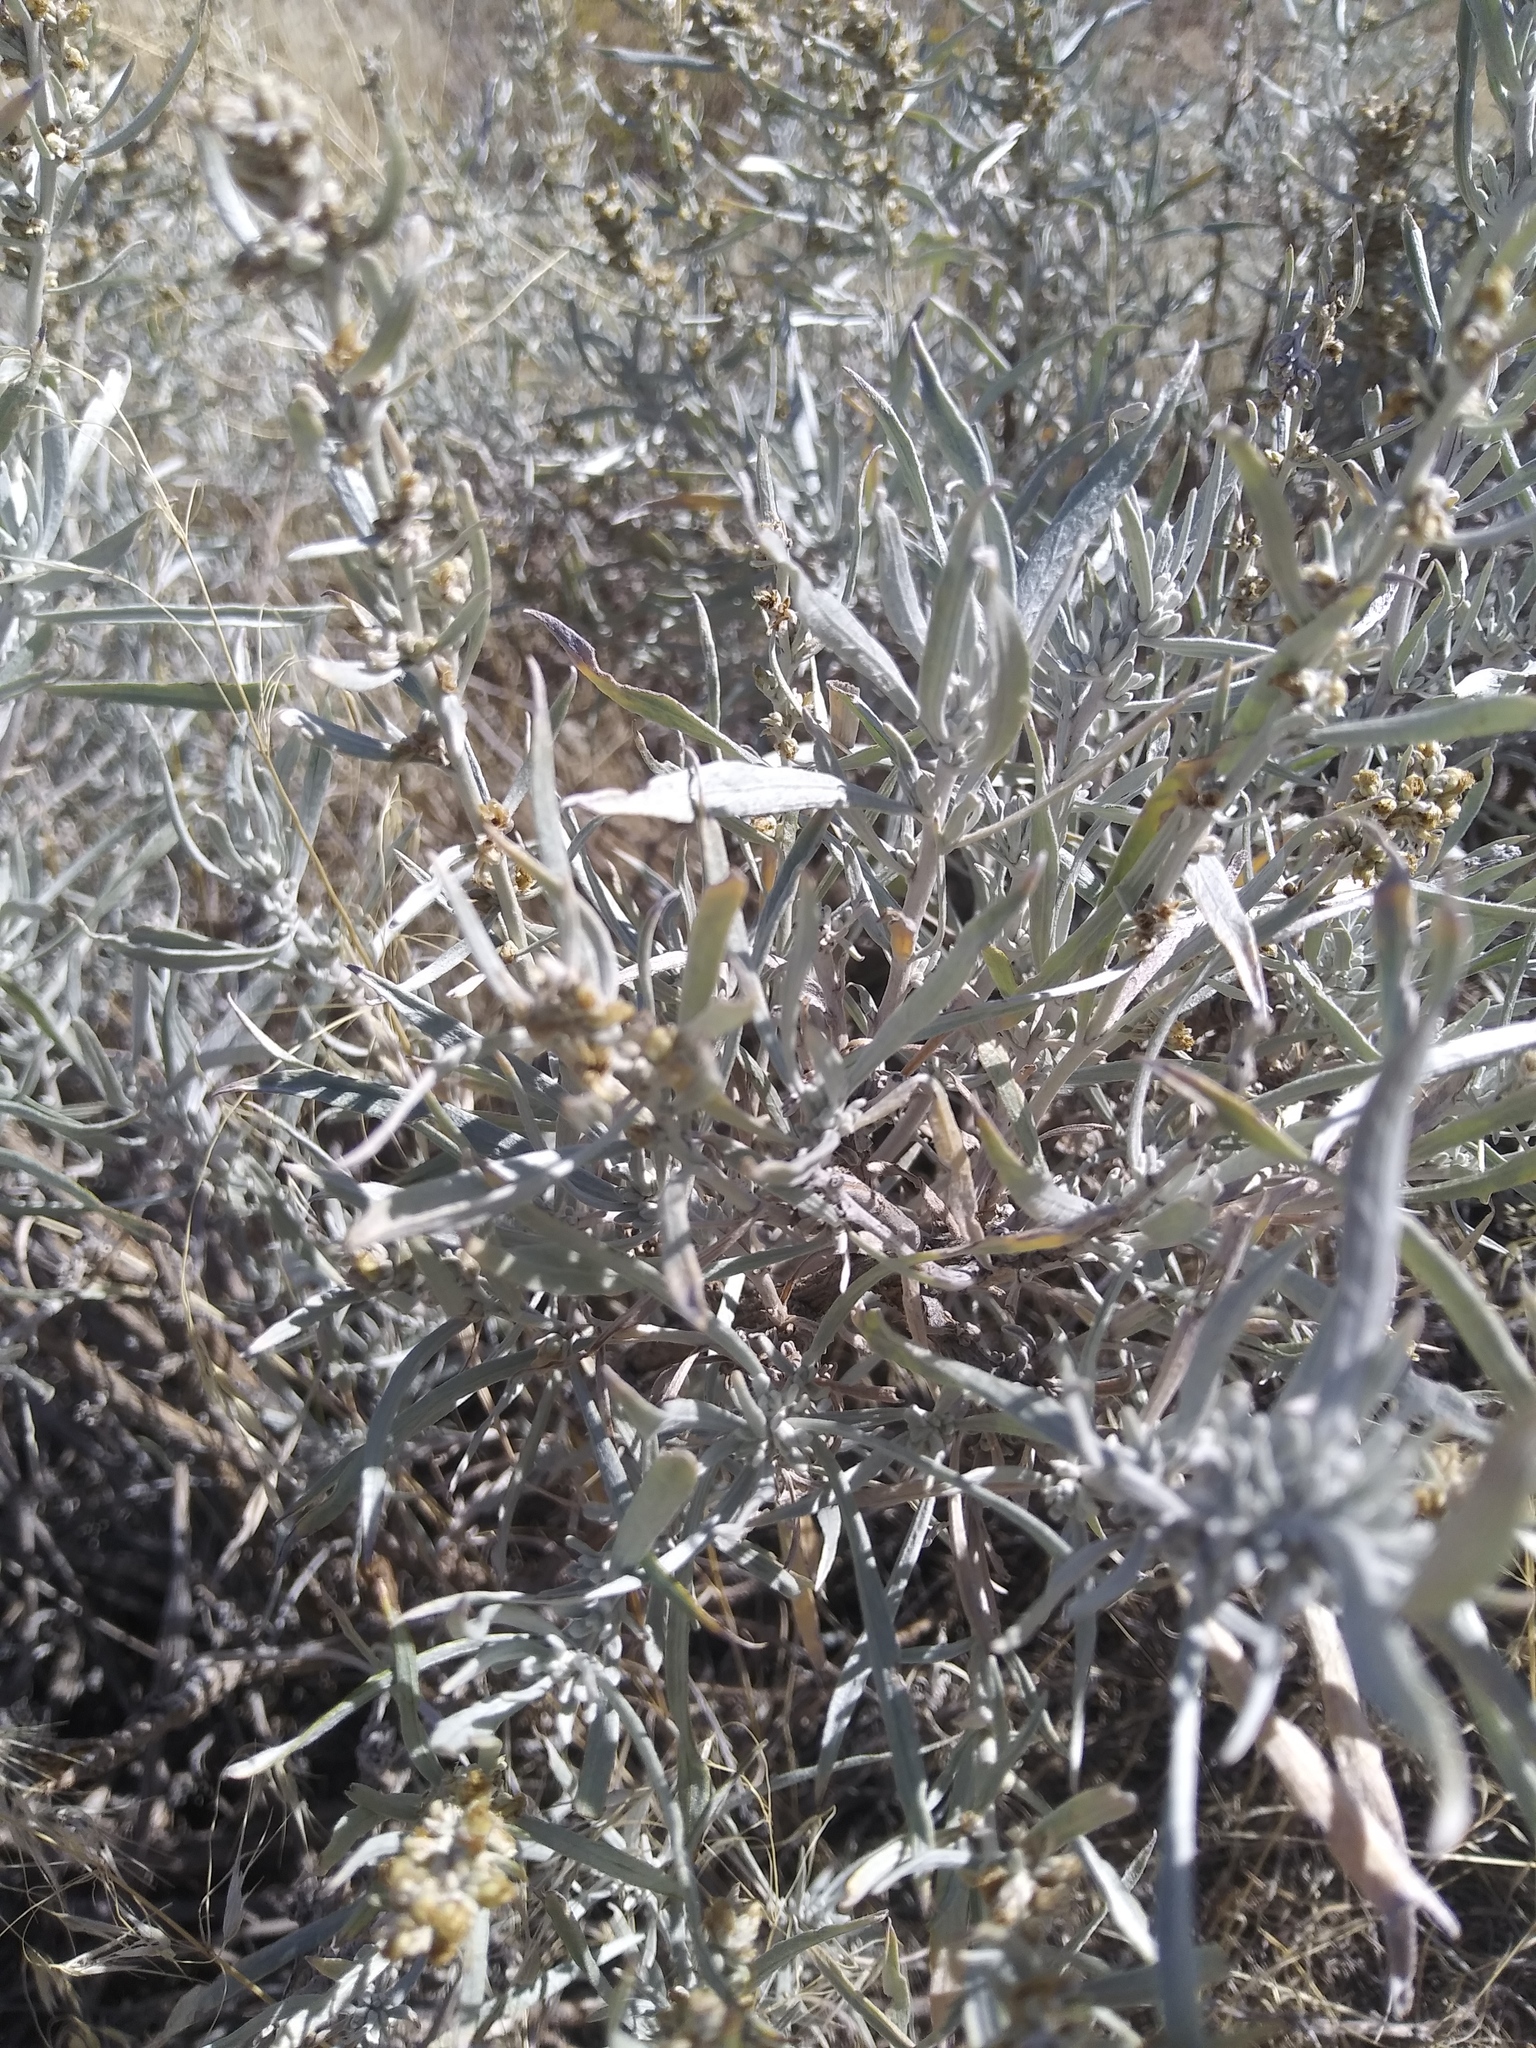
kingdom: Plantae
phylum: Tracheophyta
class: Magnoliopsida
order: Asterales
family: Asteraceae
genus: Artemisia
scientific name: Artemisia cana
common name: Silver sagebrush
